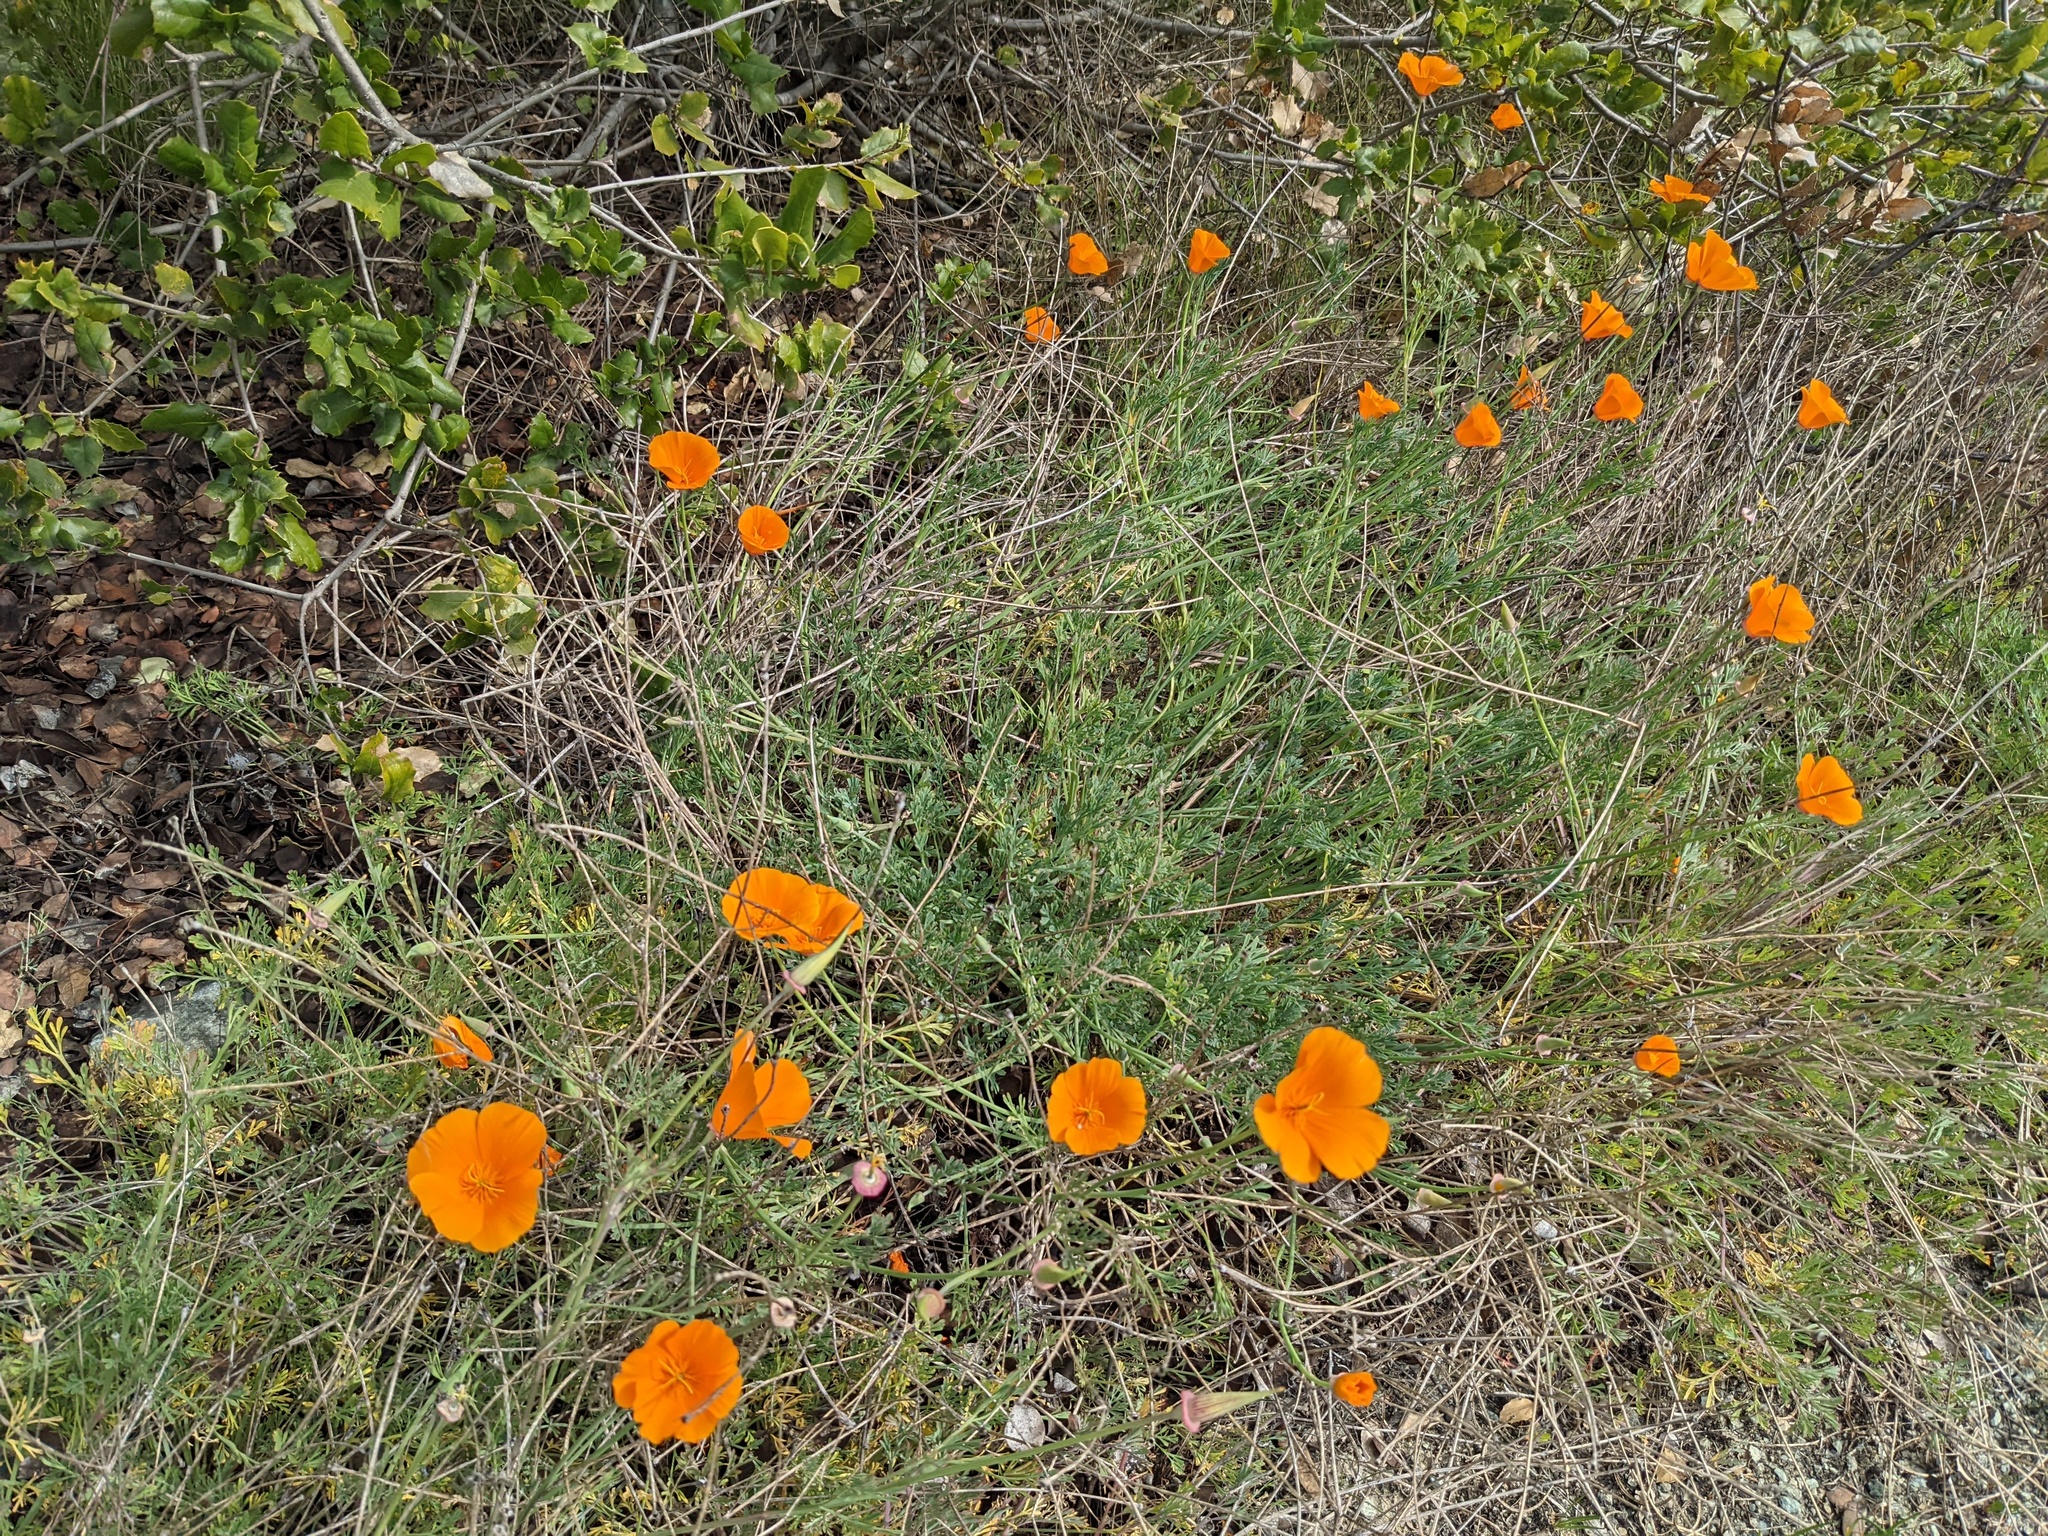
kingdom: Plantae
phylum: Tracheophyta
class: Magnoliopsida
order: Ranunculales
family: Papaveraceae
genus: Eschscholzia
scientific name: Eschscholzia californica
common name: California poppy
